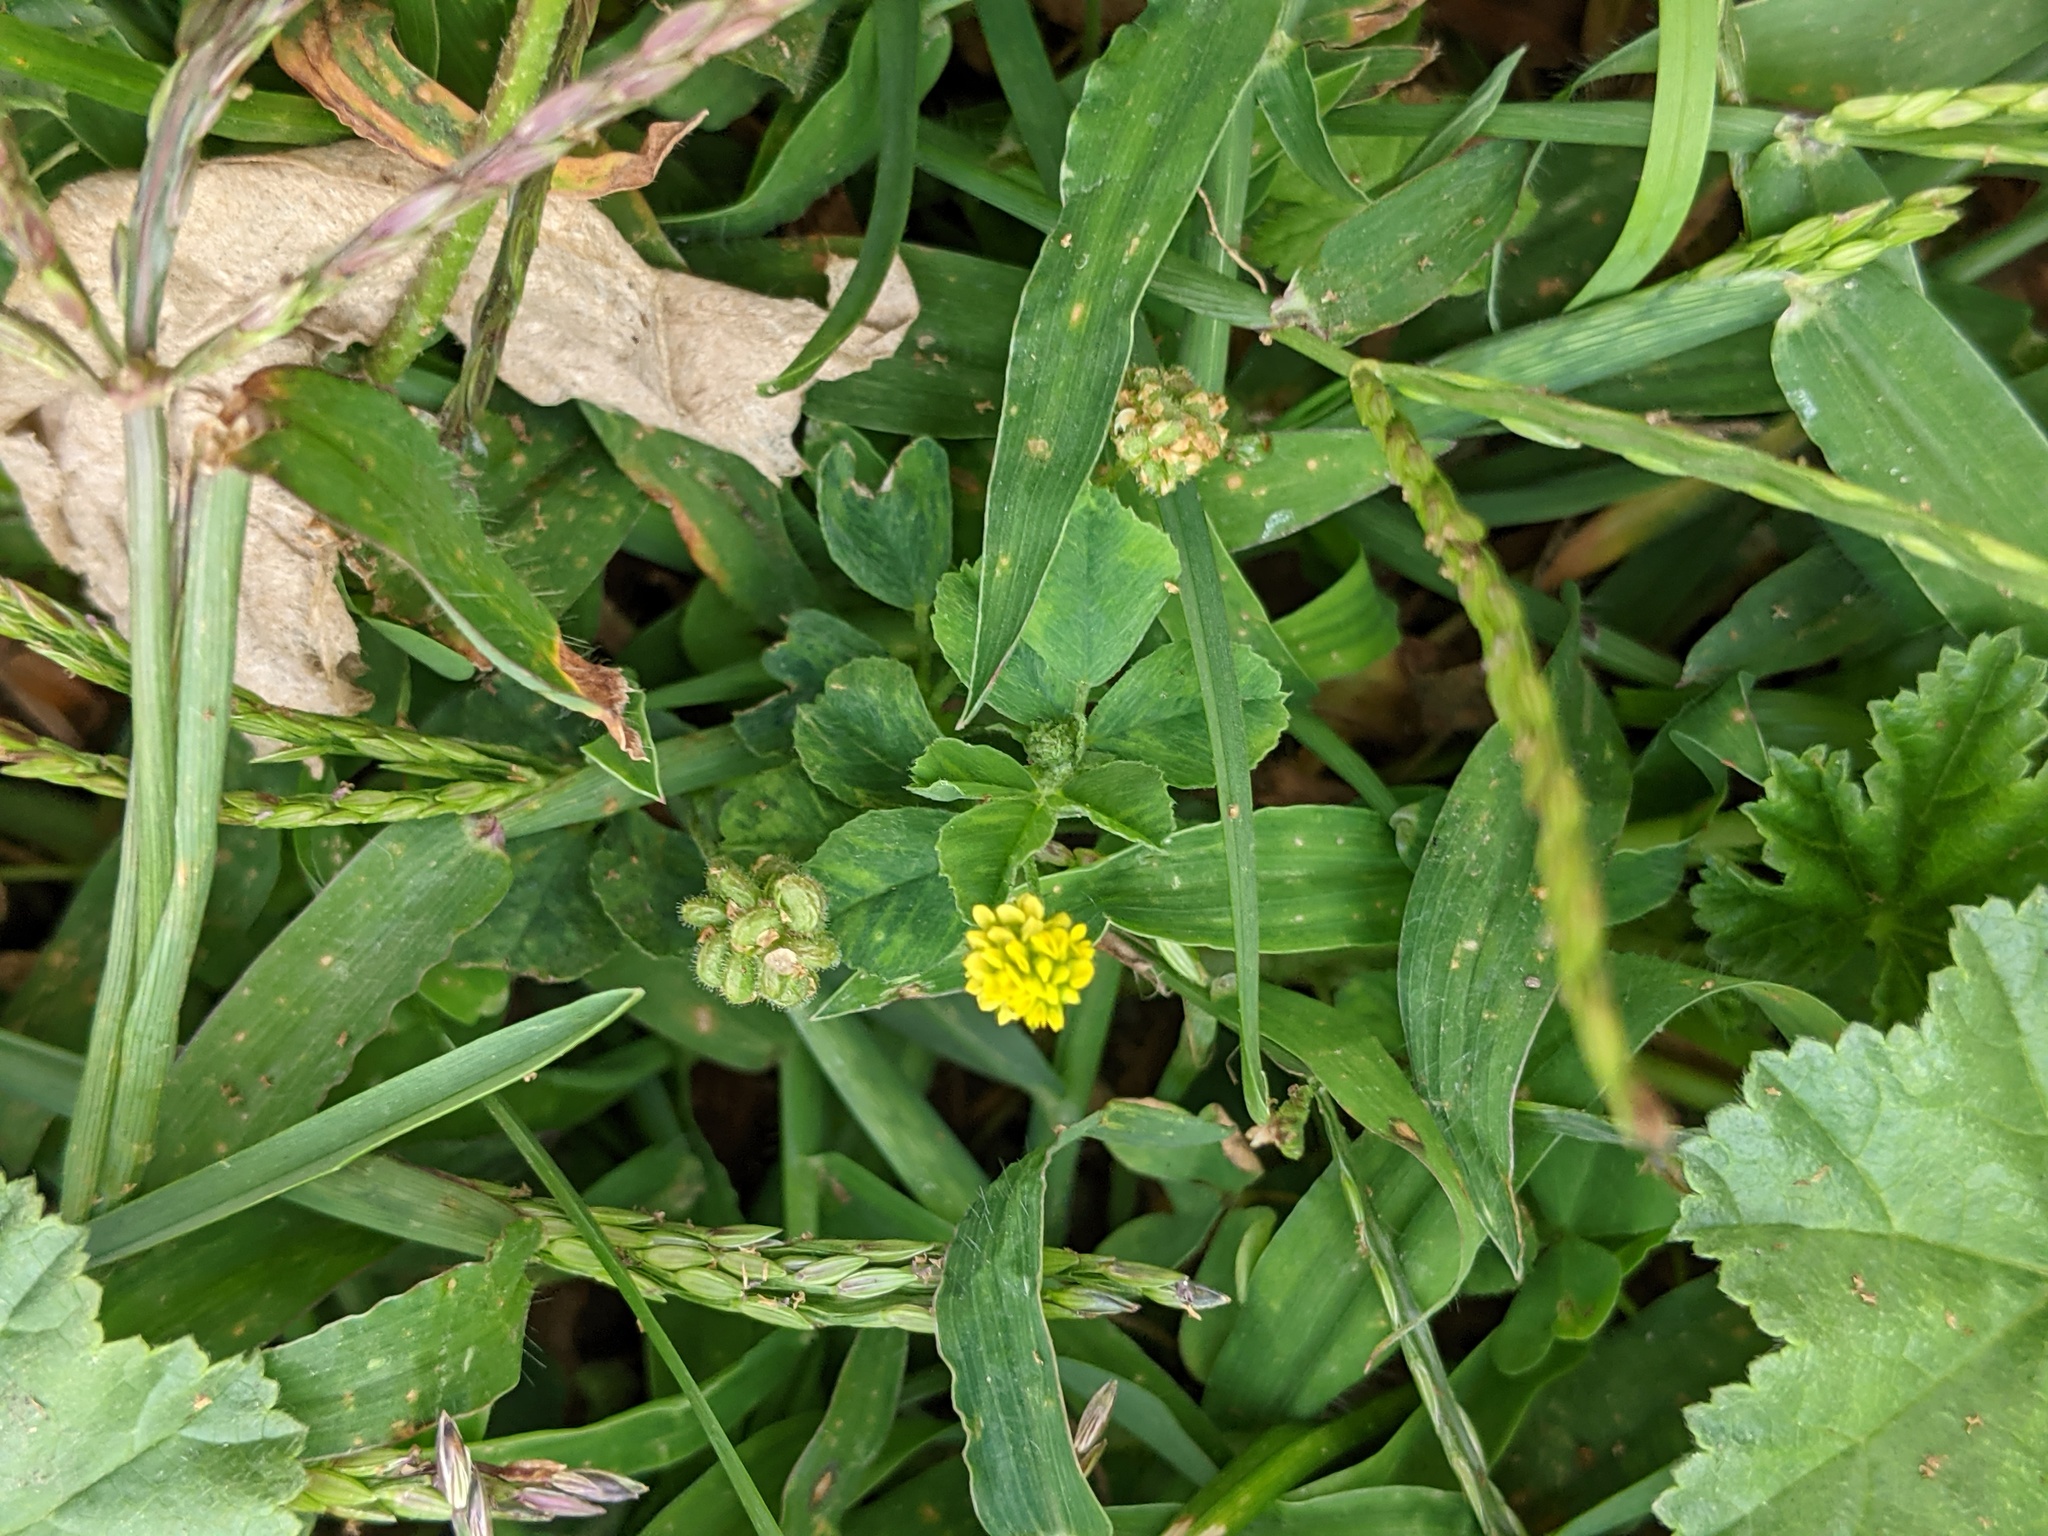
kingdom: Plantae
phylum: Tracheophyta
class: Magnoliopsida
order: Fabales
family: Fabaceae
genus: Medicago
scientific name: Medicago lupulina
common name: Black medick
